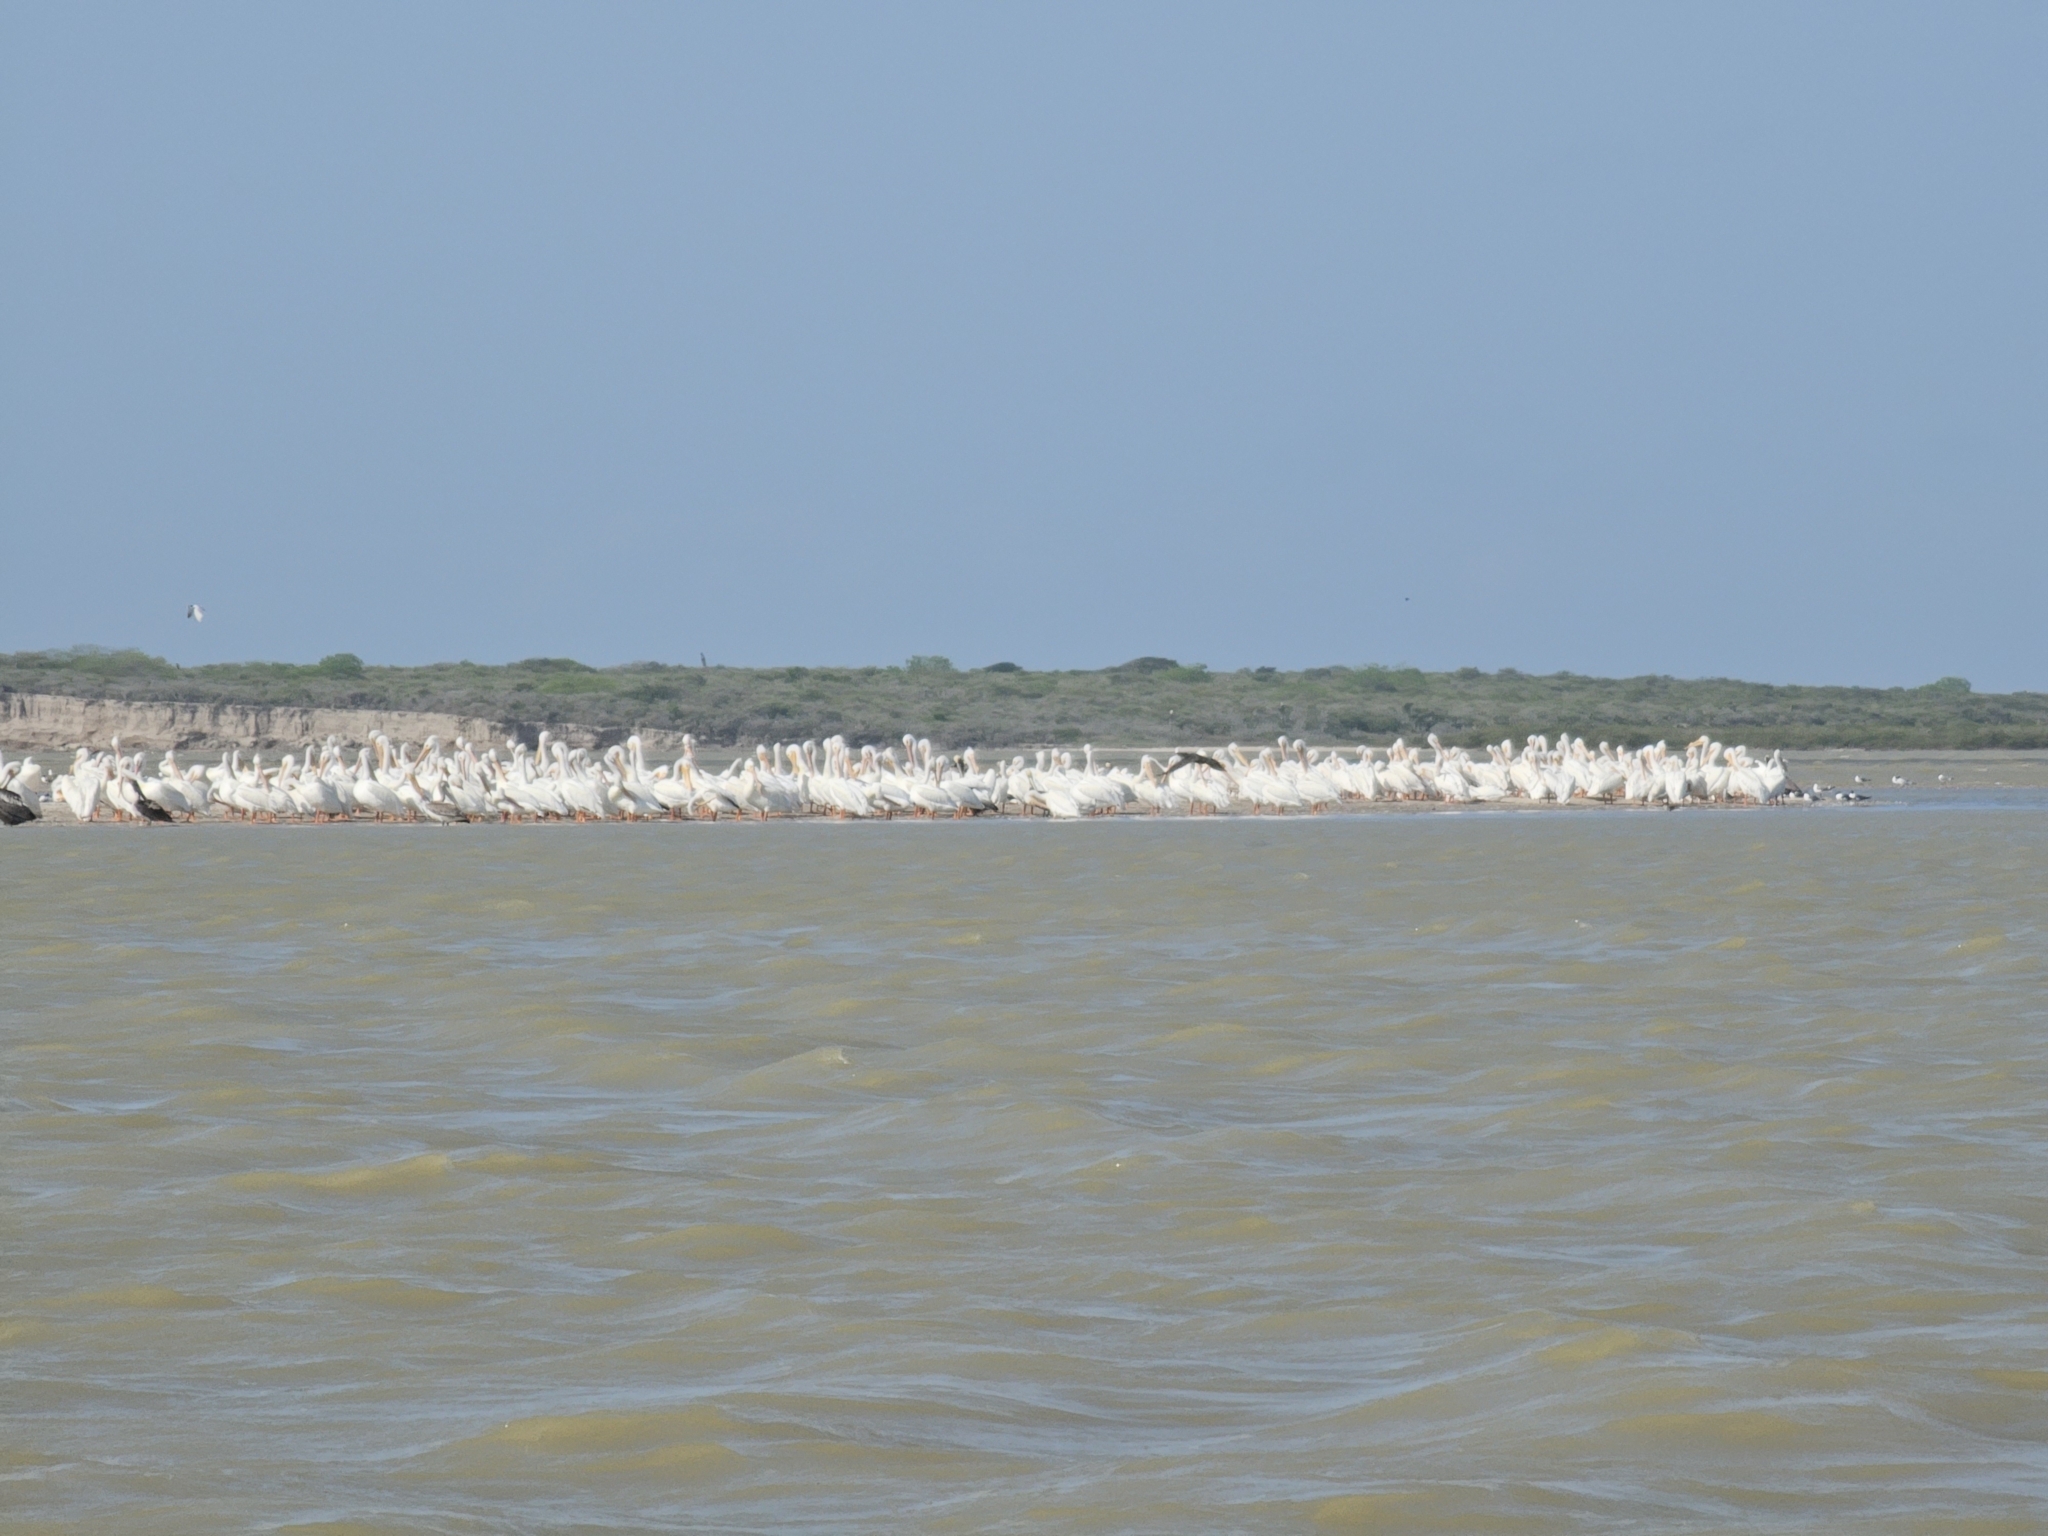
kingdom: Animalia
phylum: Chordata
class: Aves
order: Pelecaniformes
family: Pelecanidae
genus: Pelecanus
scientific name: Pelecanus erythrorhynchos
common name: American white pelican
